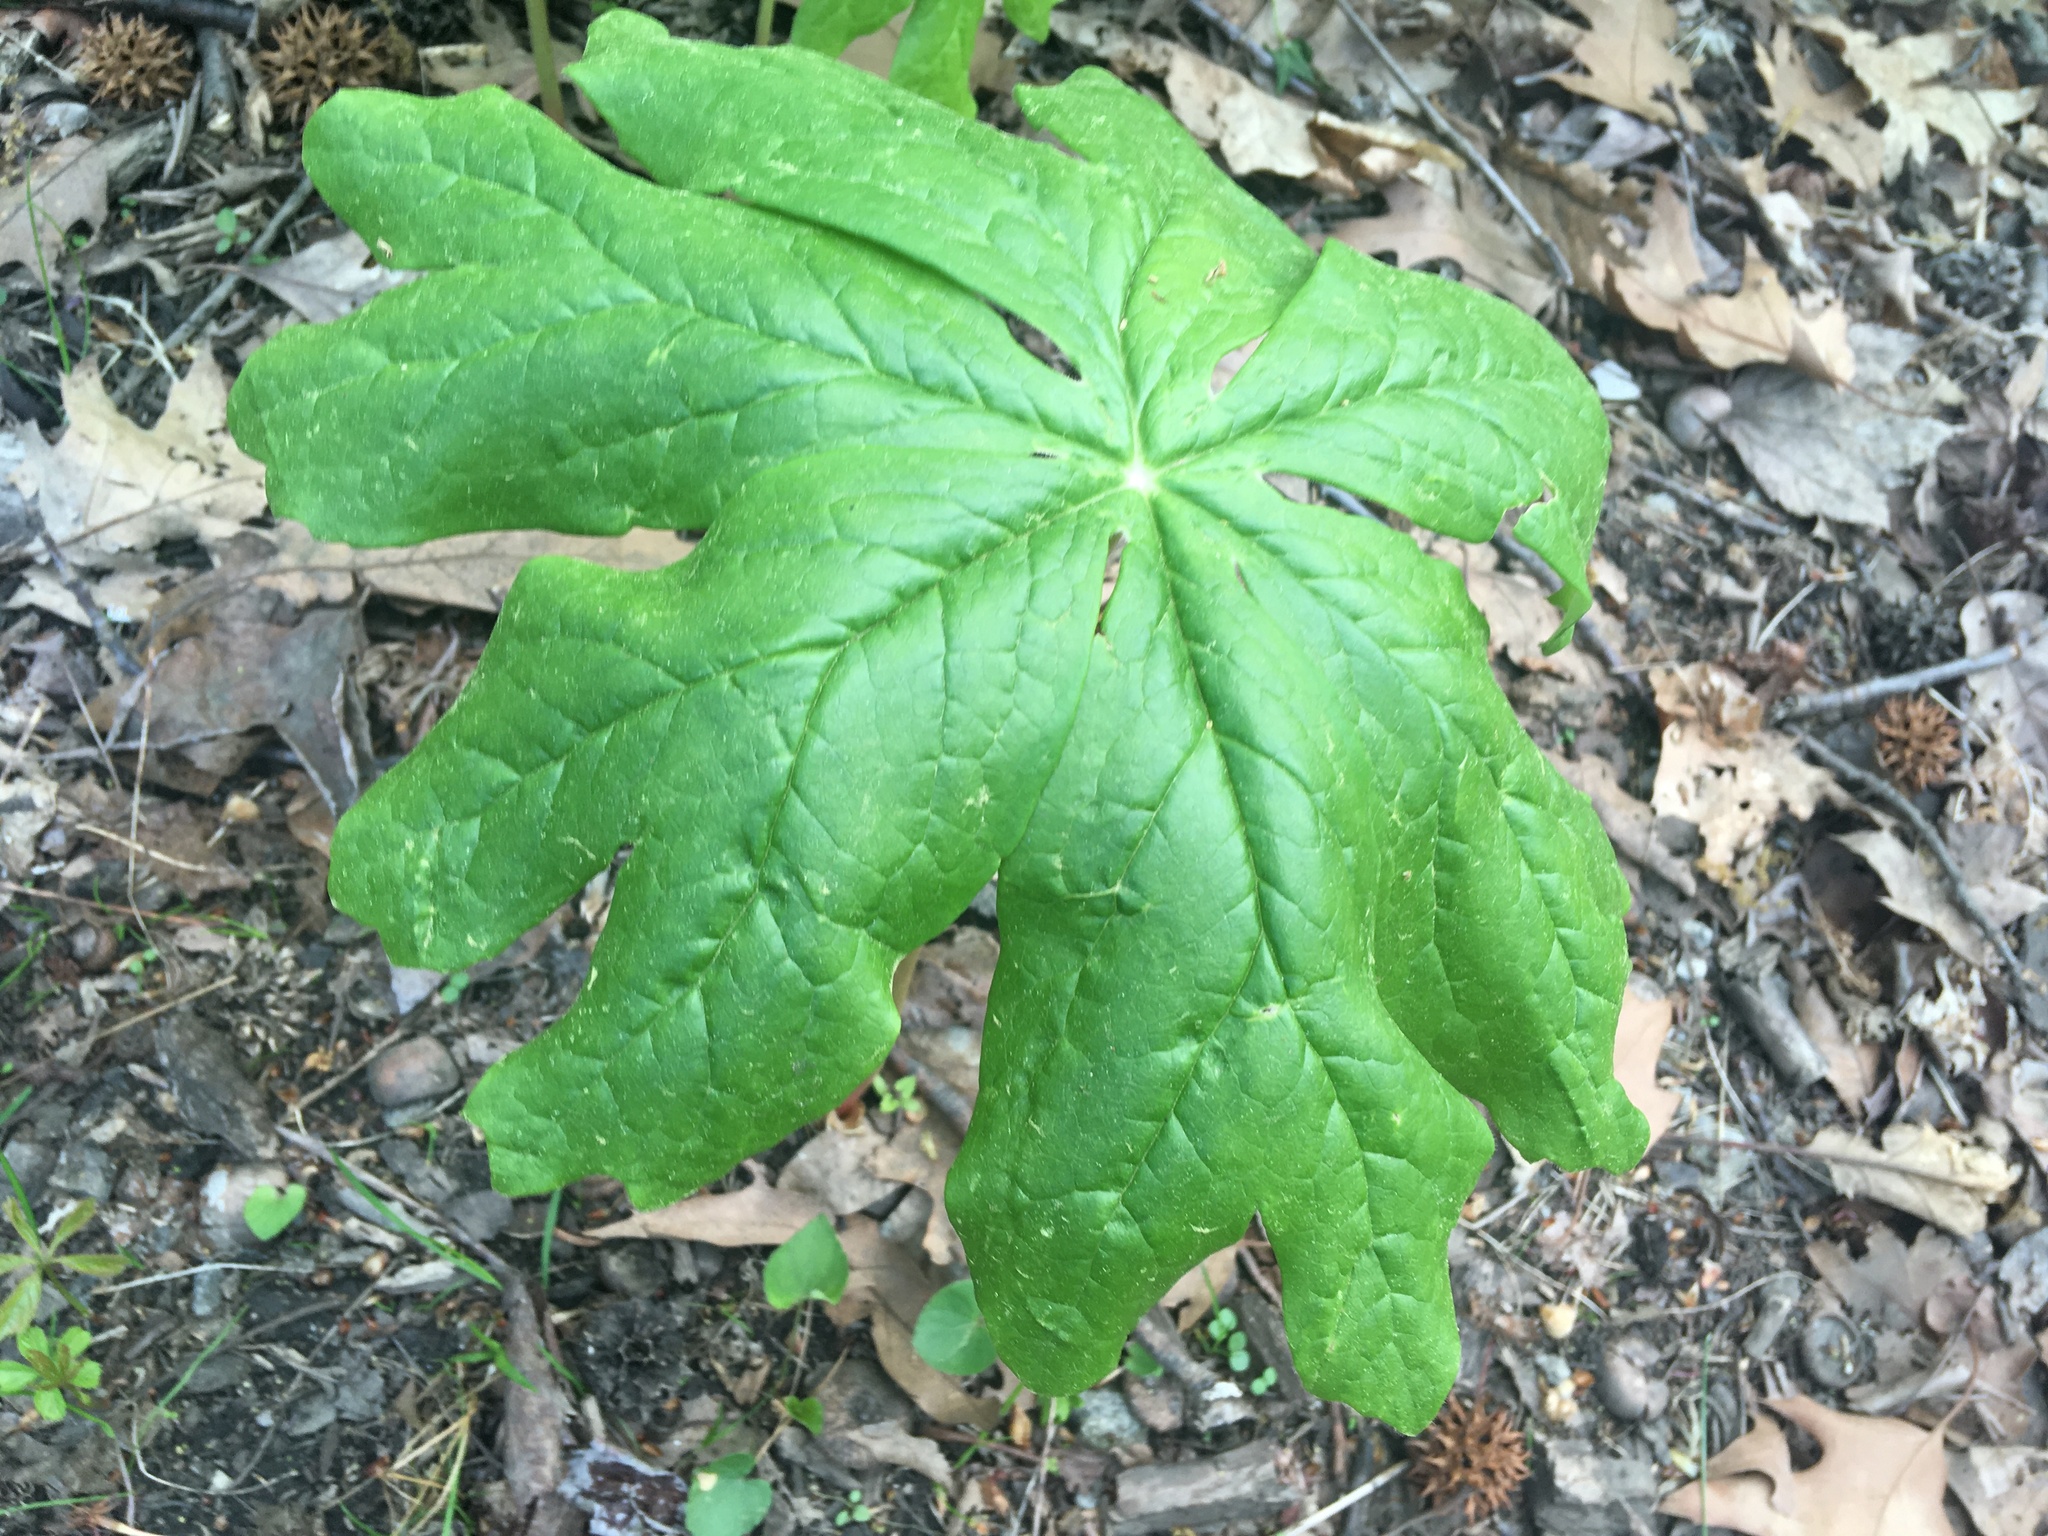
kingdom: Plantae
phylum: Tracheophyta
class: Magnoliopsida
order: Ranunculales
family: Berberidaceae
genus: Podophyllum
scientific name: Podophyllum peltatum
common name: Wild mandrake
